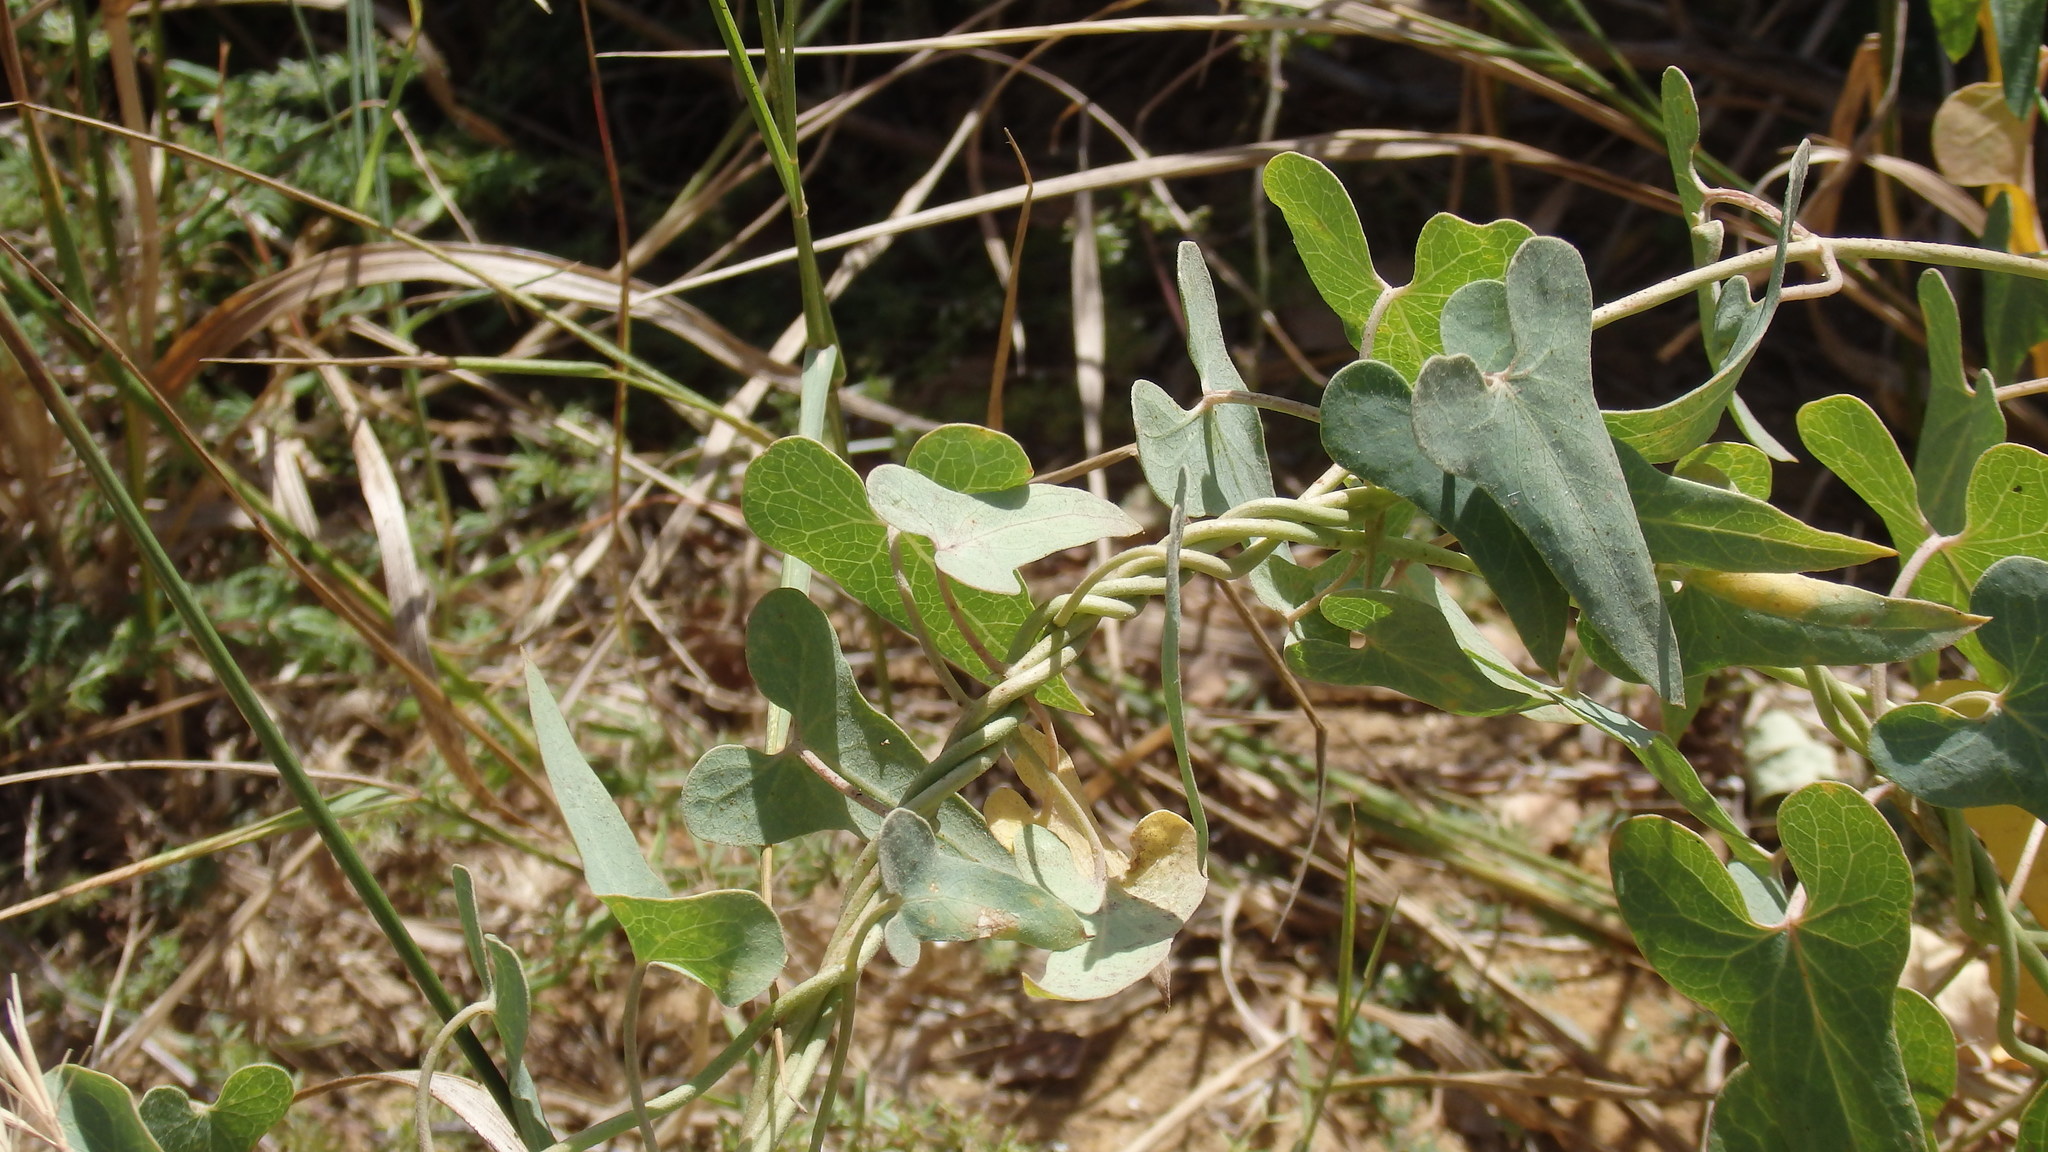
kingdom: Plantae
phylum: Tracheophyta
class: Magnoliopsida
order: Gentianales
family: Apocynaceae
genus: Cynanchum
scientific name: Cynanchum acutum
